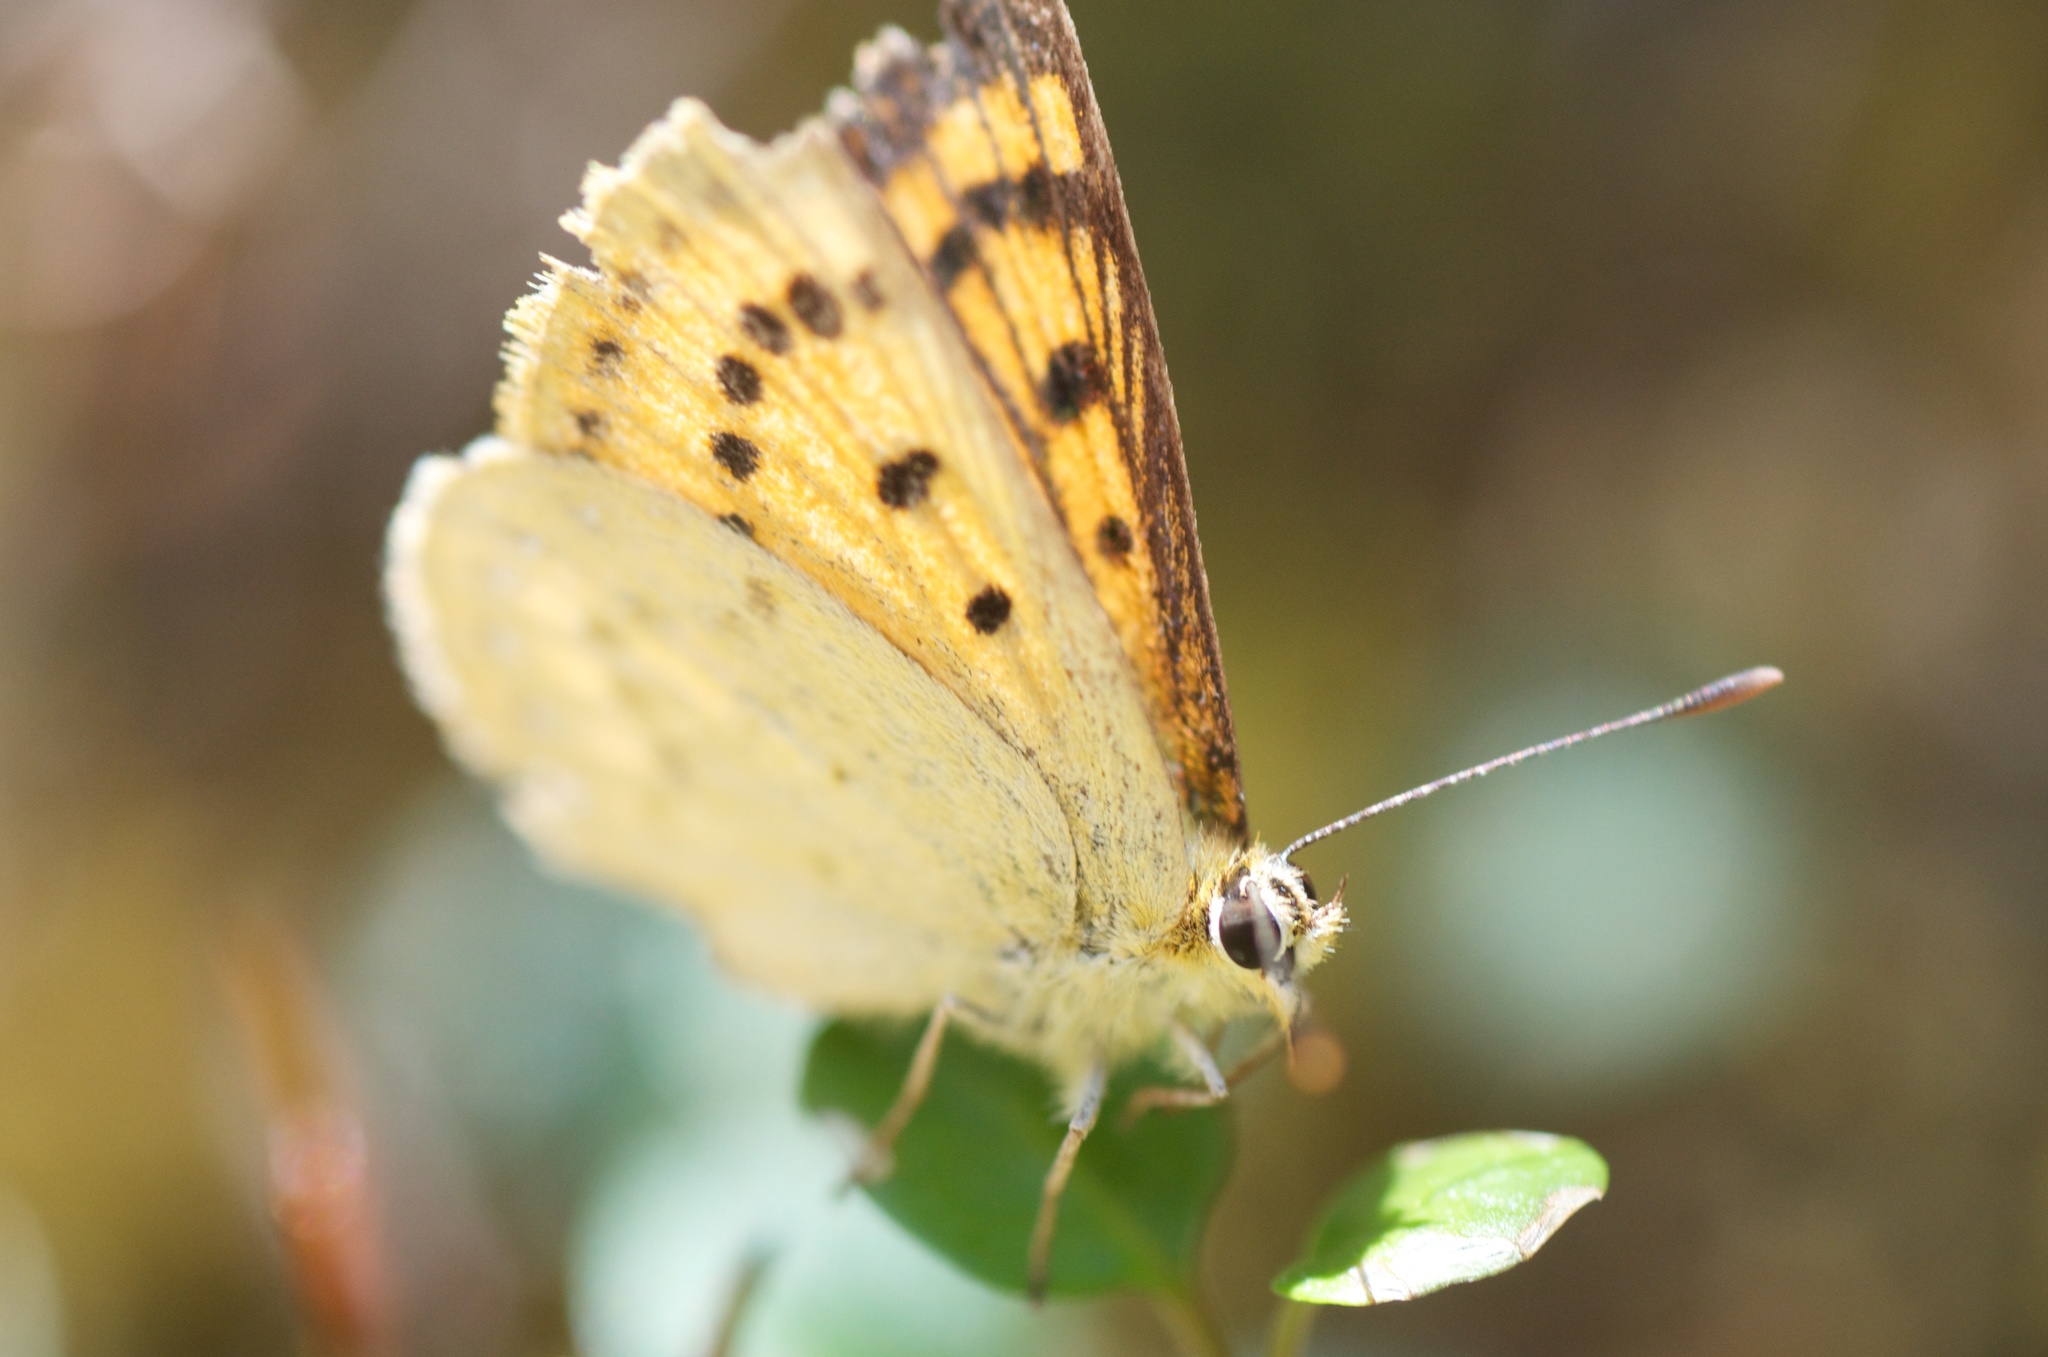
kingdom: Animalia
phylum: Arthropoda
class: Insecta
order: Lepidoptera
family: Lycaenidae
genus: Lycaena
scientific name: Lycaena salustius
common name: North island coastal copper
